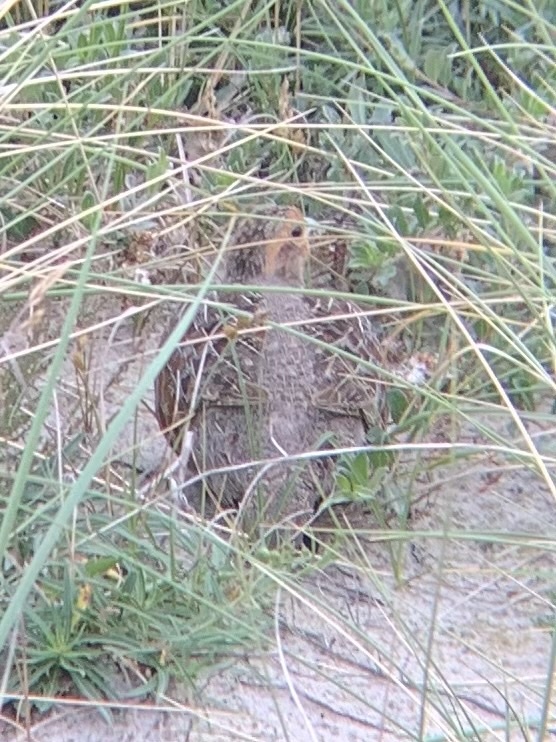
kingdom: Animalia
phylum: Chordata
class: Aves
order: Galliformes
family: Phasianidae
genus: Perdix
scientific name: Perdix perdix
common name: Grey partridge
